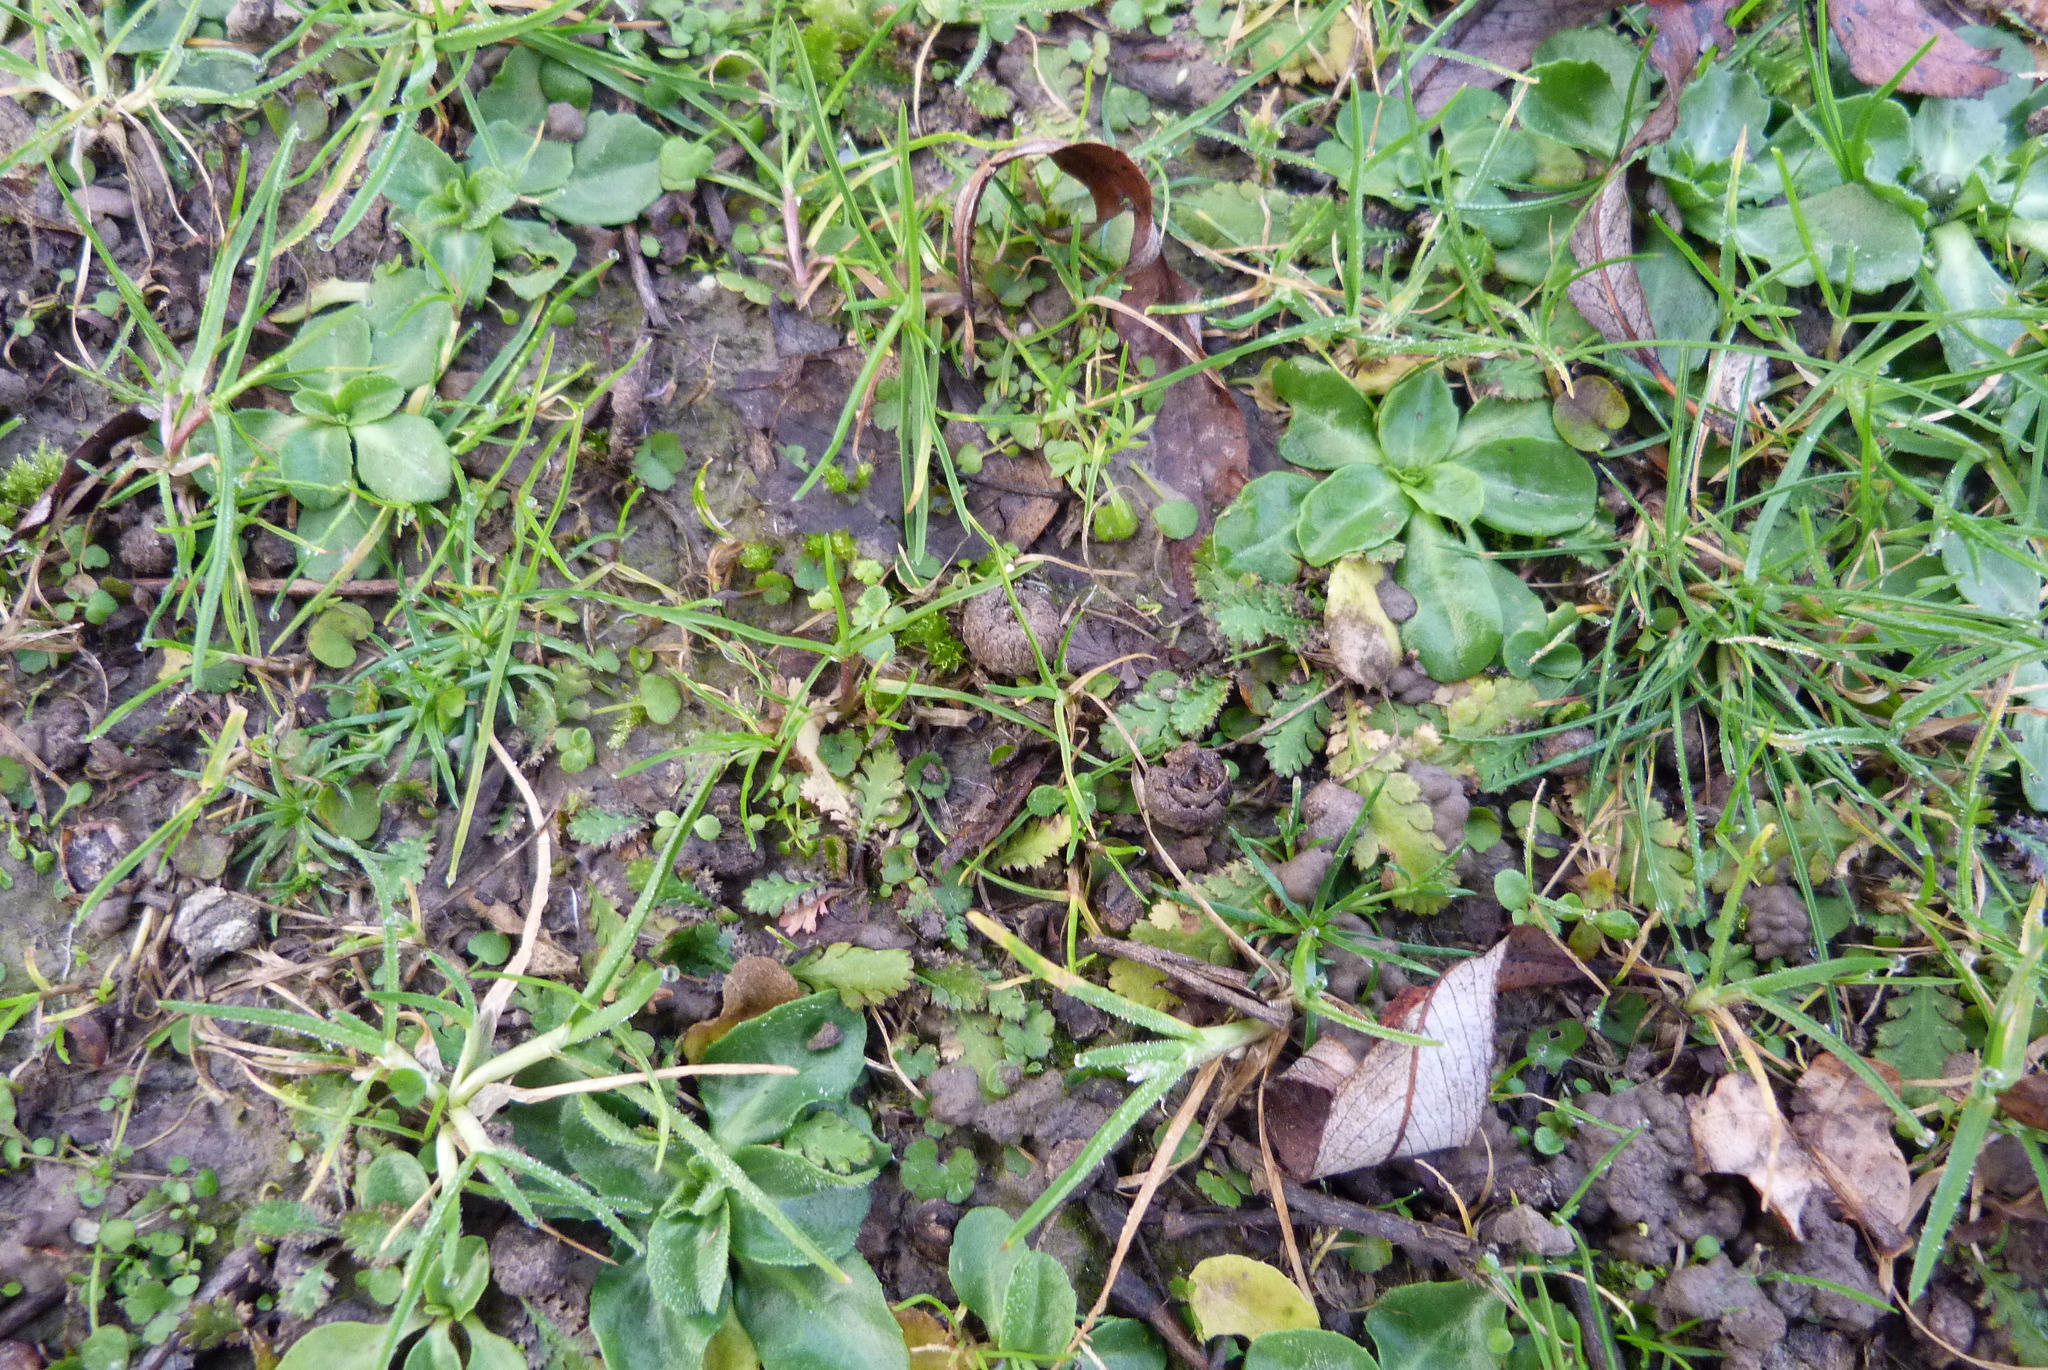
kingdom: Plantae
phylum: Tracheophyta
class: Magnoliopsida
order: Asterales
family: Asteraceae
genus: Leptinella
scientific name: Leptinella dioica
